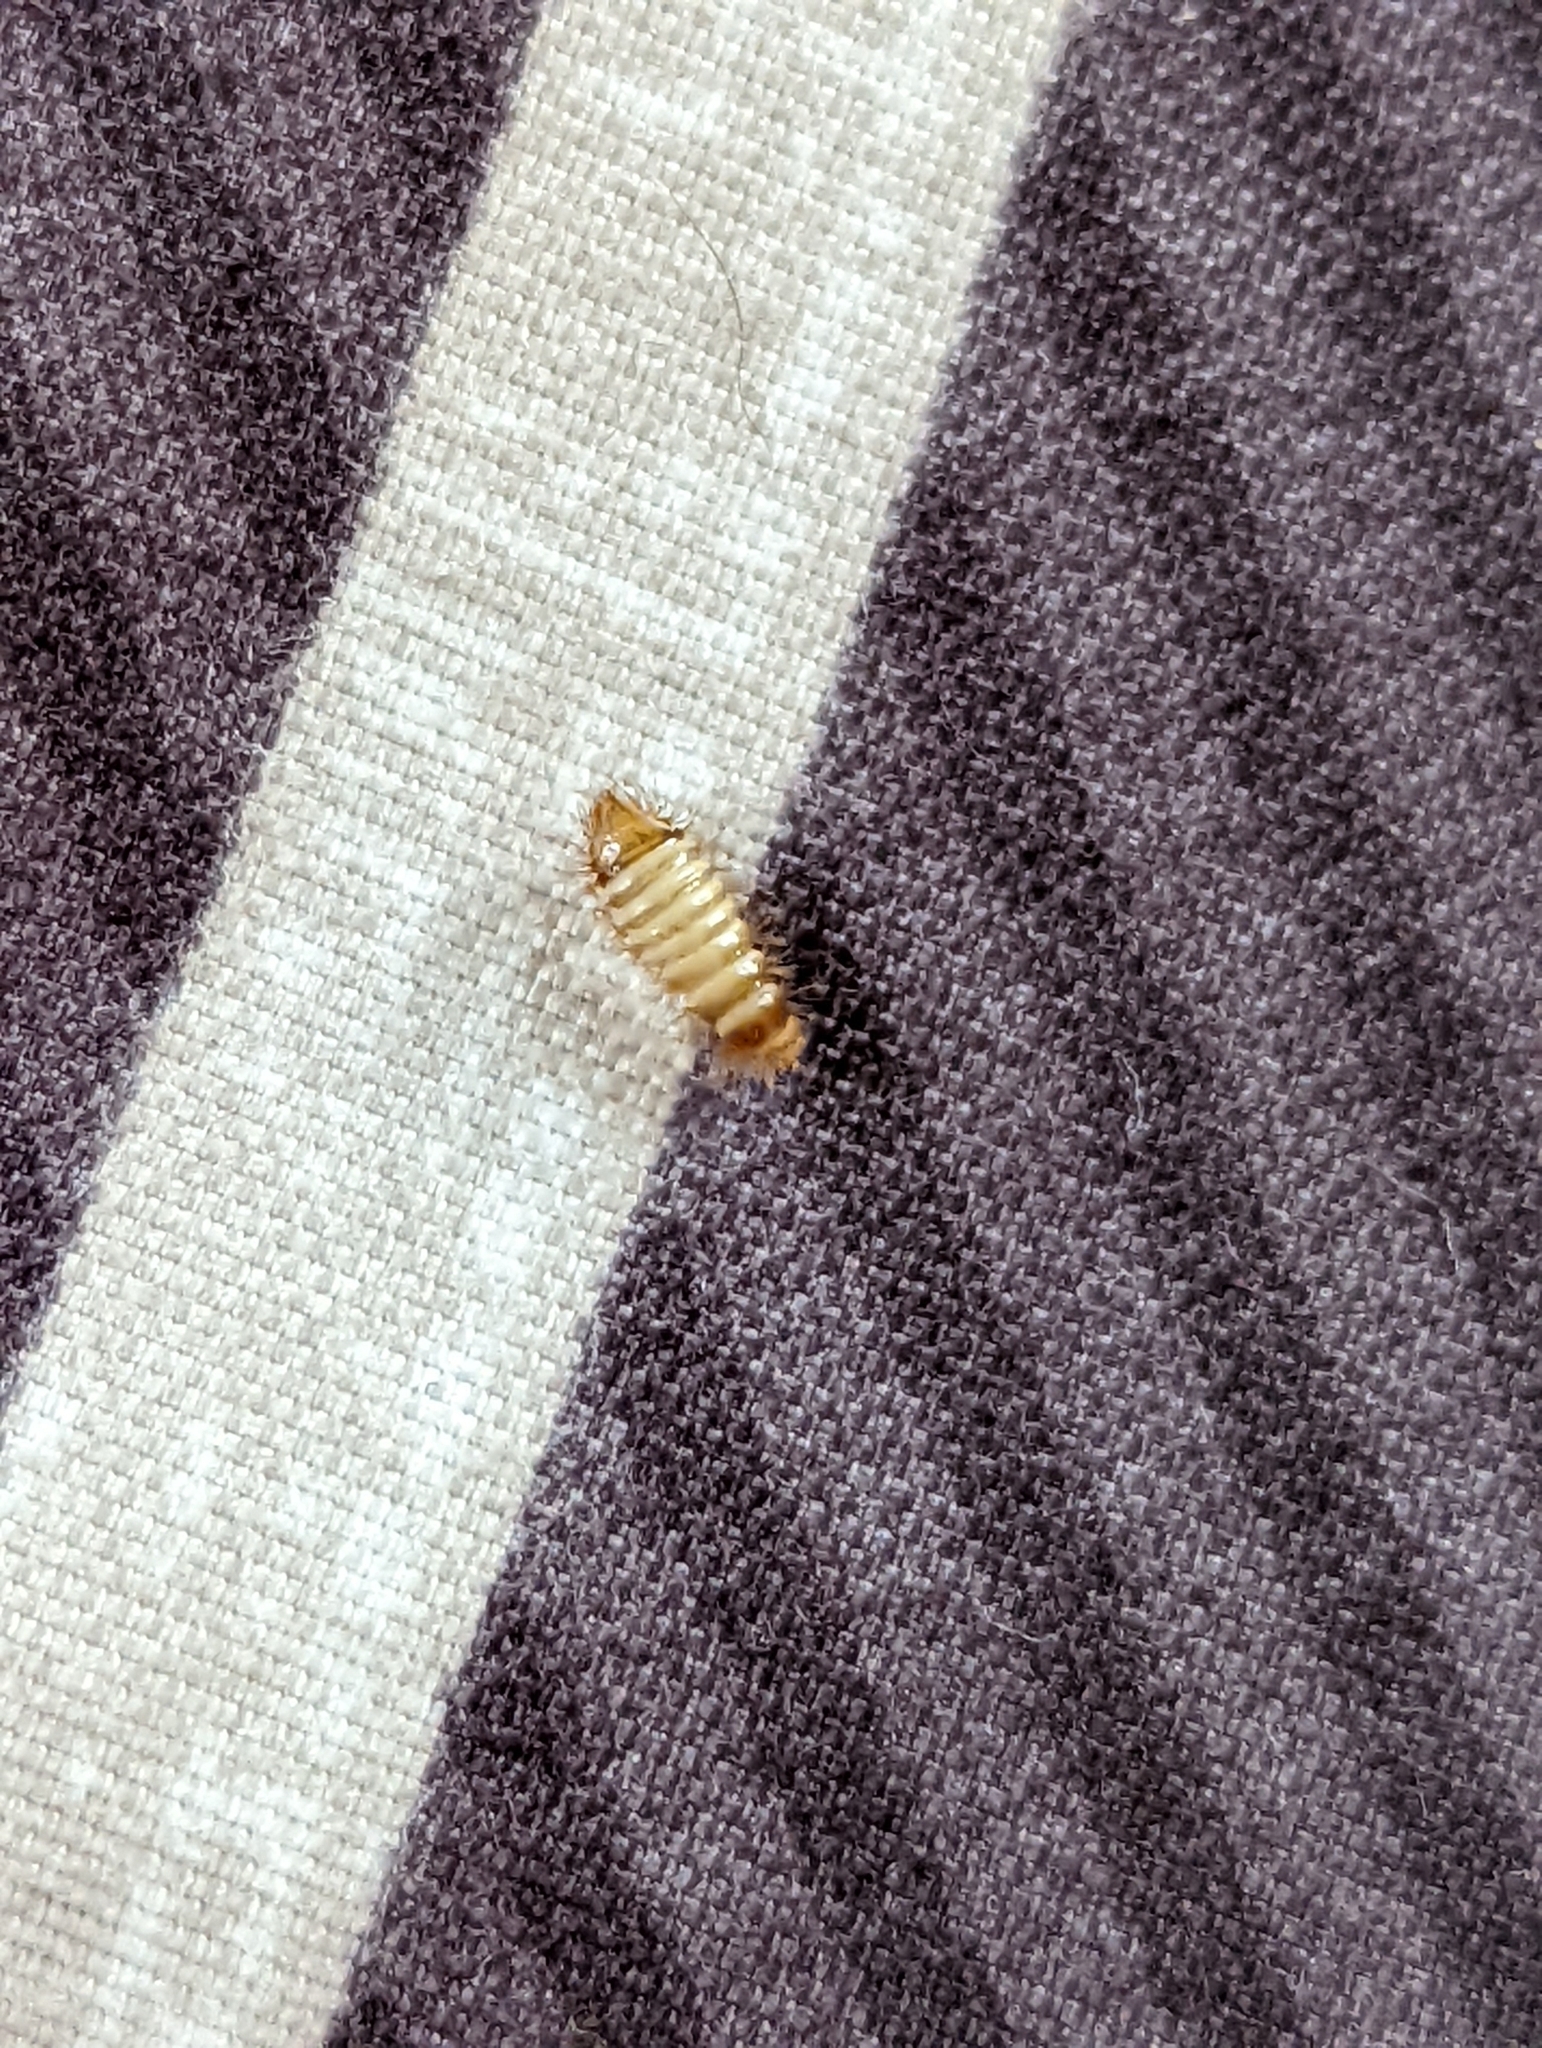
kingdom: Animalia
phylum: Arthropoda
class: Insecta
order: Coleoptera
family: Dermestidae
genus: Anthrenus
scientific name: Anthrenus verbasci
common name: Varied carpet beetle
